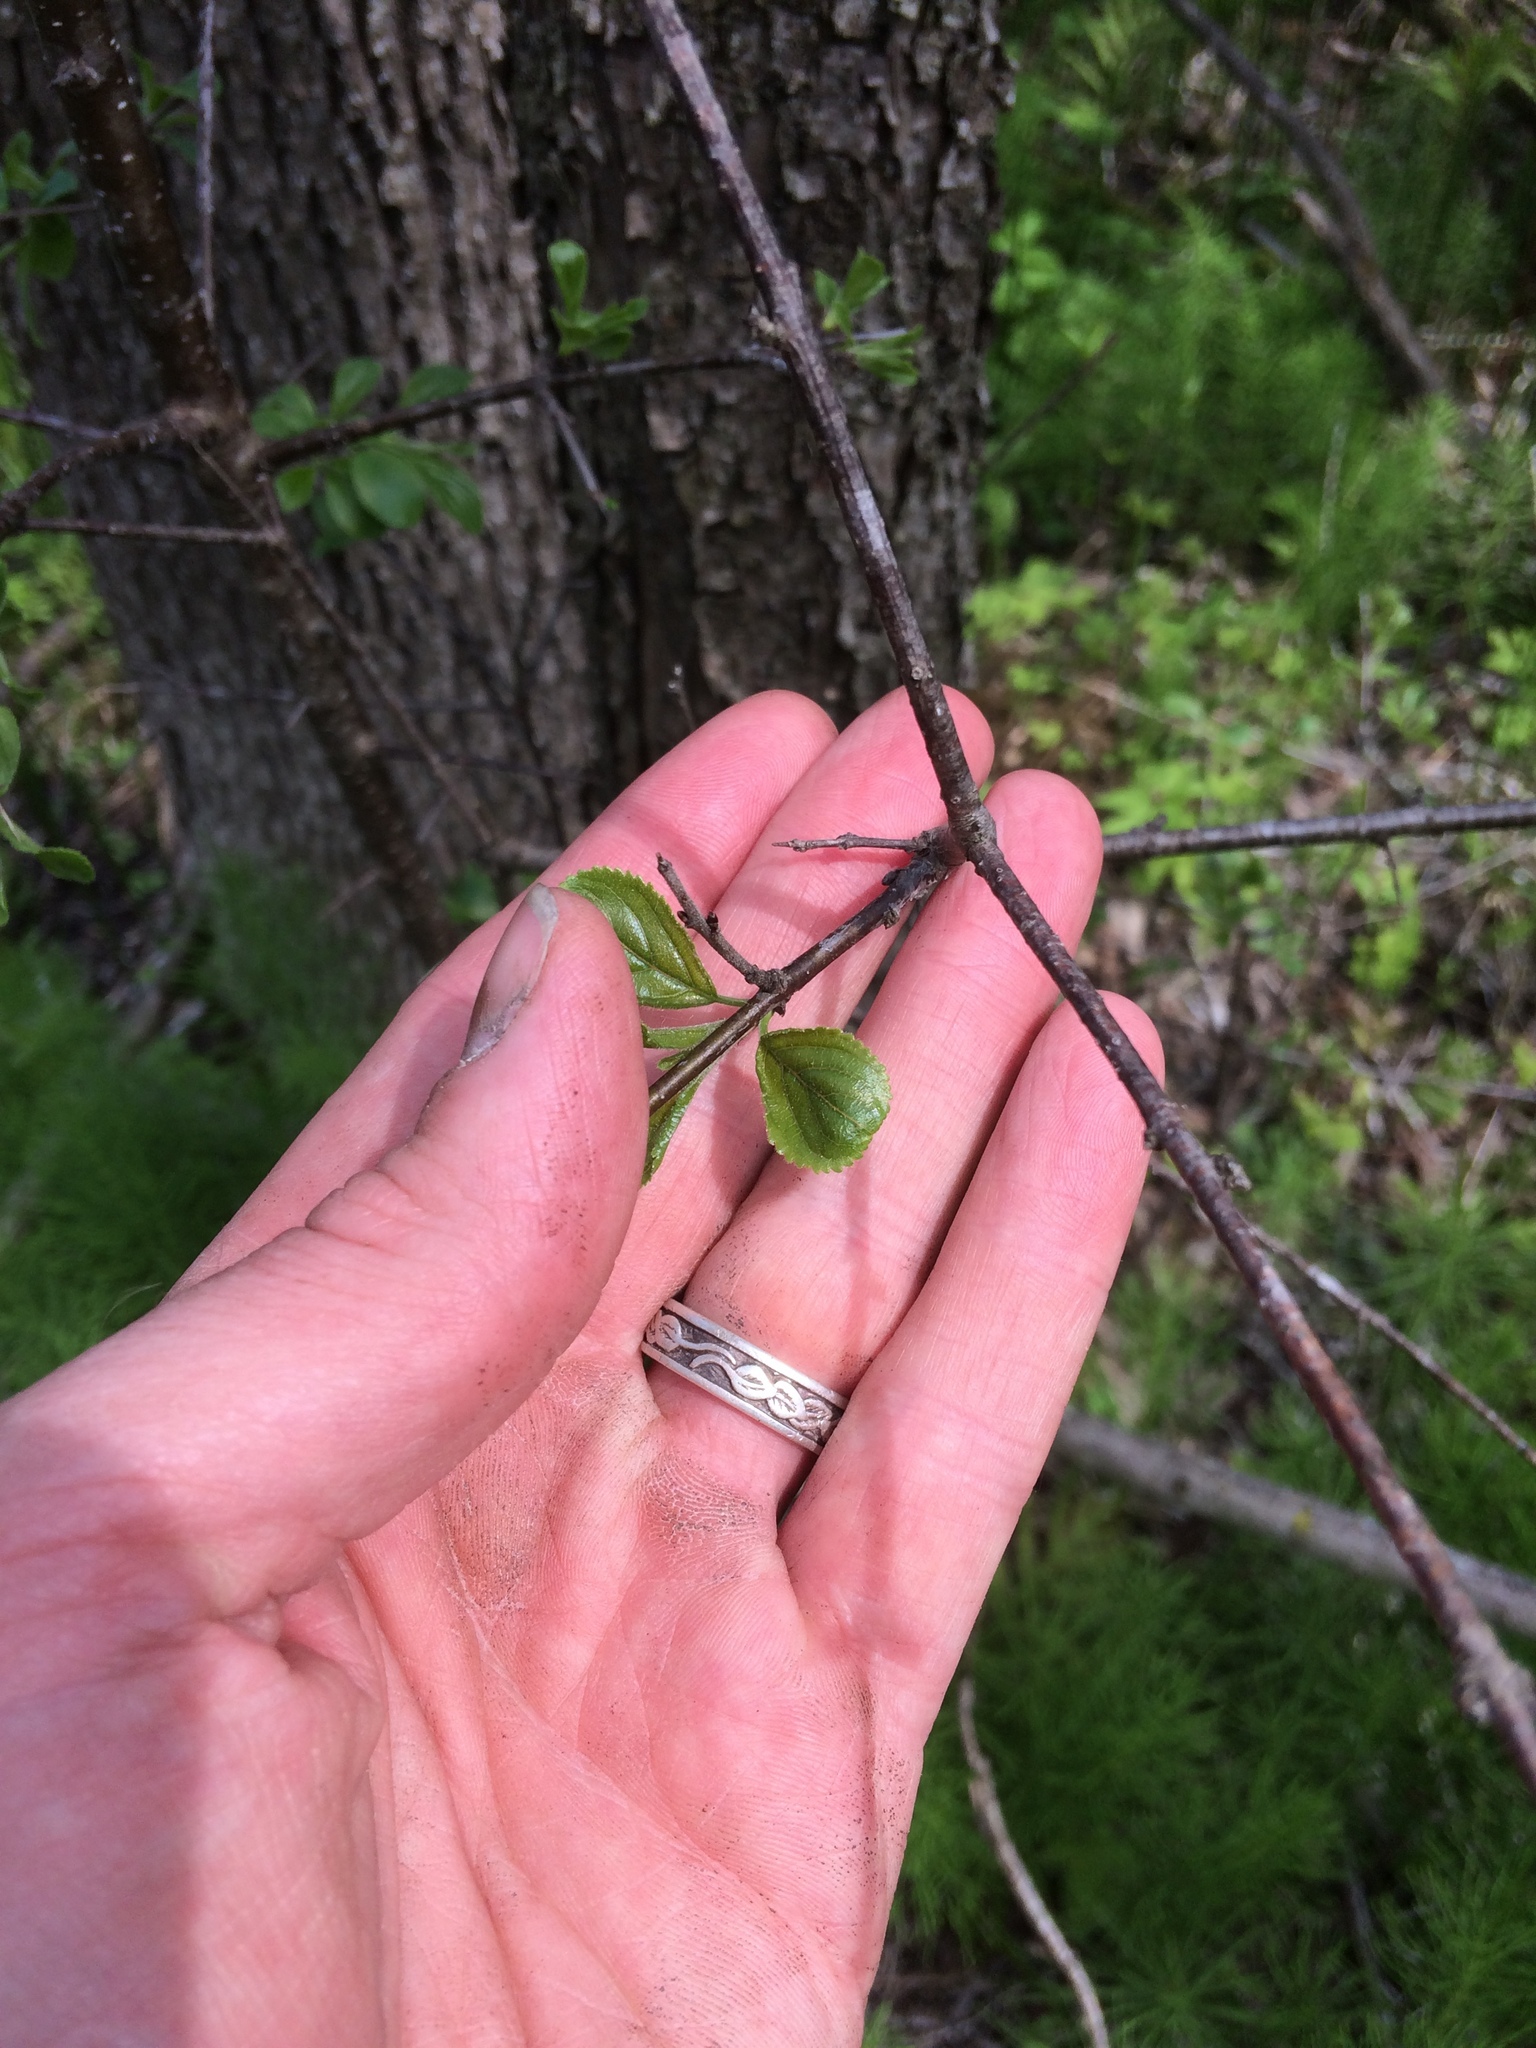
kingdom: Plantae
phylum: Tracheophyta
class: Magnoliopsida
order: Rosales
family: Rhamnaceae
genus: Rhamnus
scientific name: Rhamnus cathartica
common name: Common buckthorn
